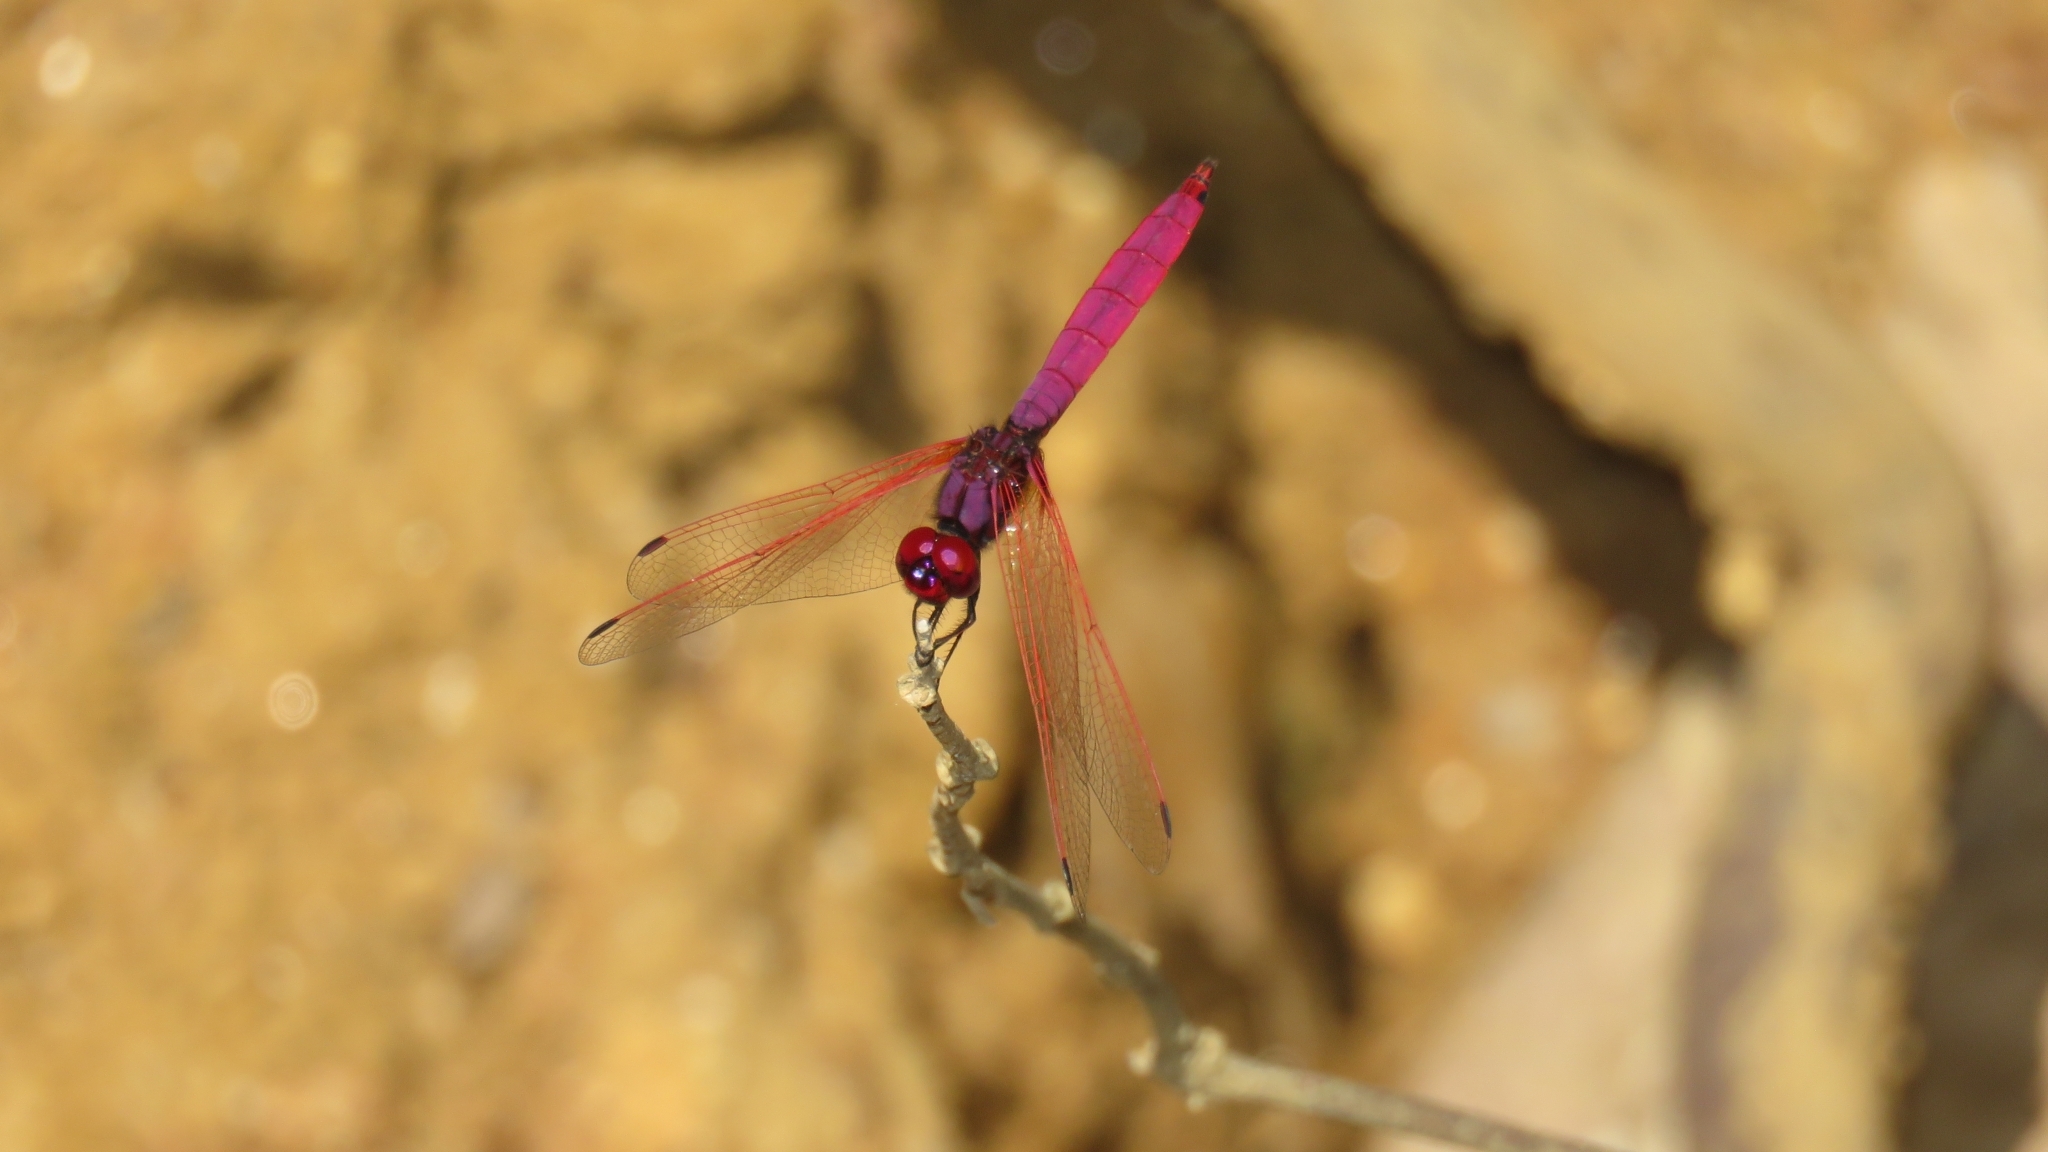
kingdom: Animalia
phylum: Arthropoda
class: Insecta
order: Odonata
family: Libellulidae
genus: Trithemis
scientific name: Trithemis aurora
